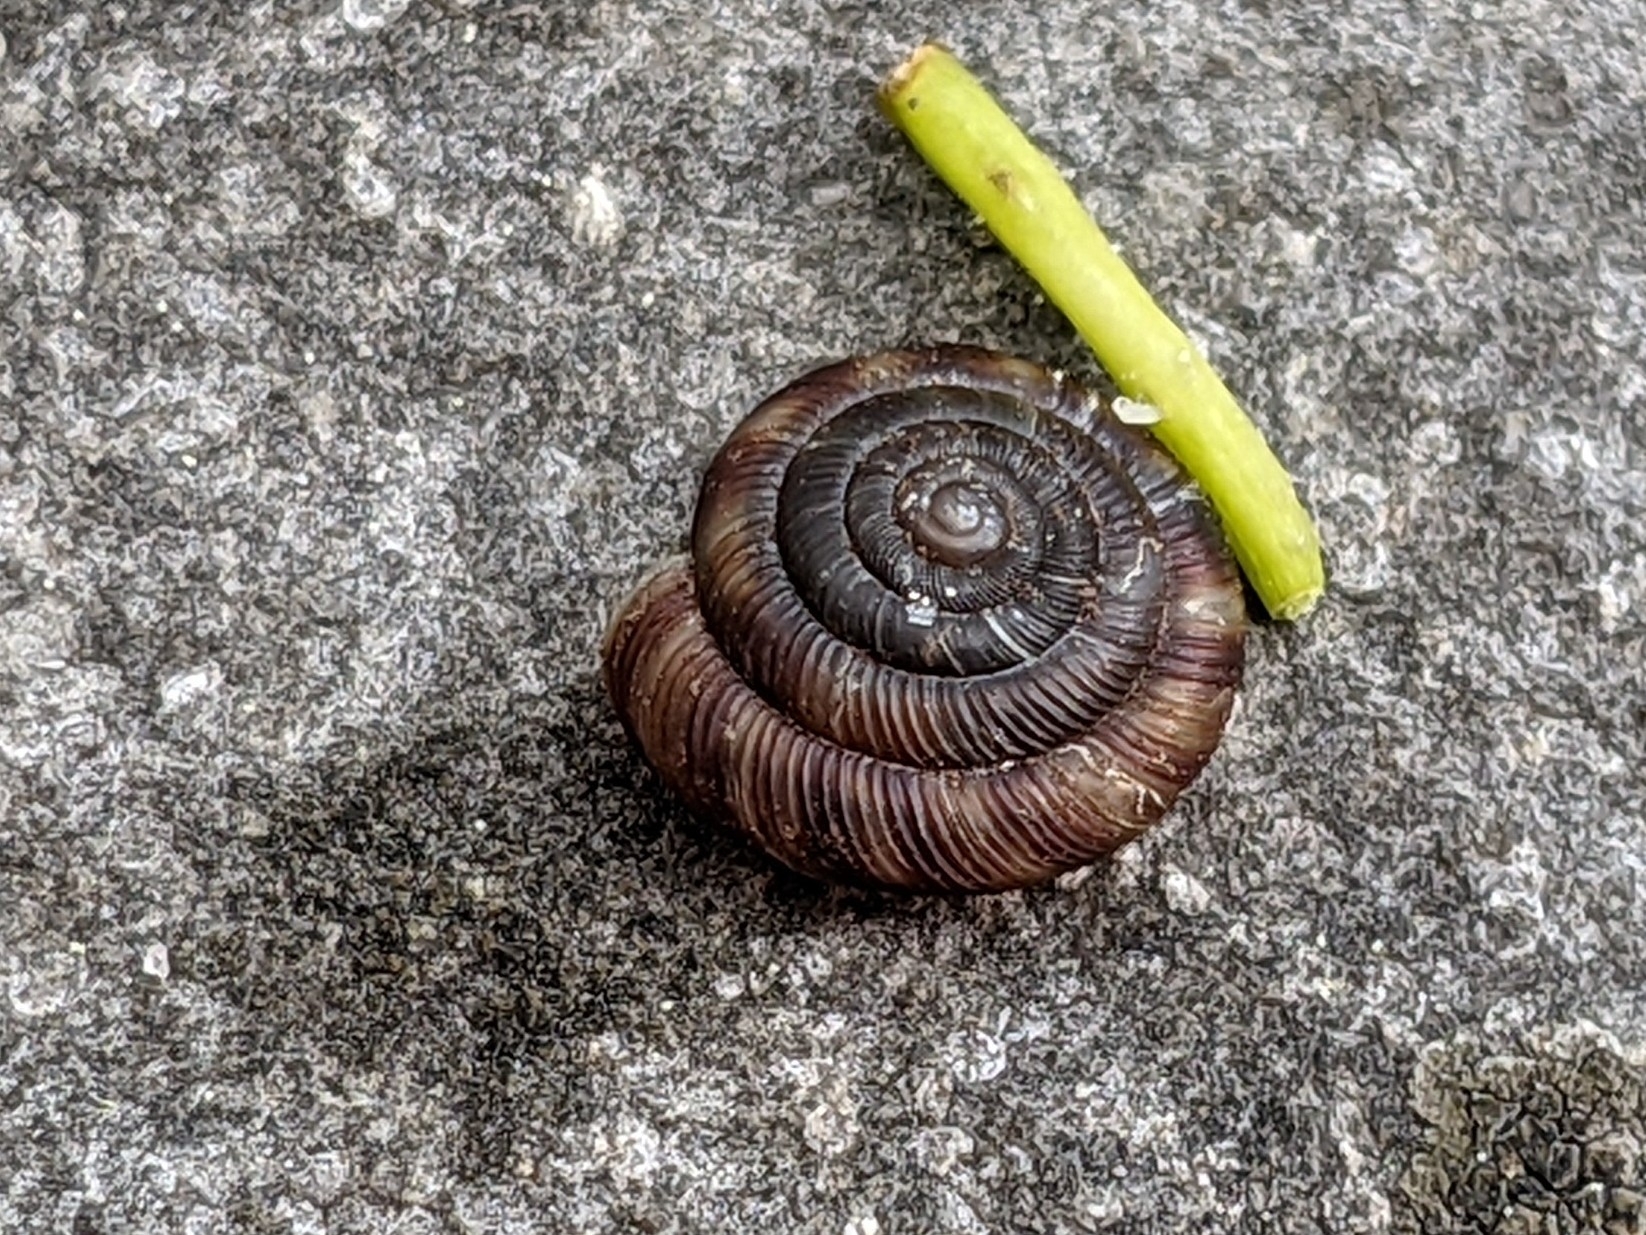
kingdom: Animalia
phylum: Mollusca
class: Gastropoda
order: Stylommatophora
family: Discidae
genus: Discus
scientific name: Discus rotundatus
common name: Rounded snail
